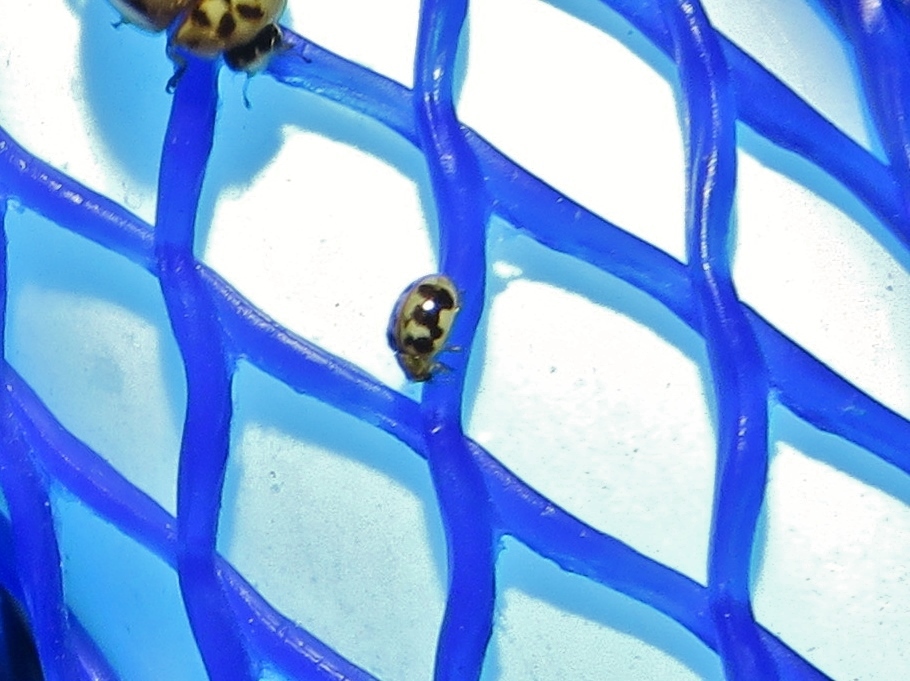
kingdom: Animalia
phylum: Arthropoda
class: Insecta
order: Coleoptera
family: Coccinellidae
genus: Psyllobora
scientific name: Psyllobora renifer
